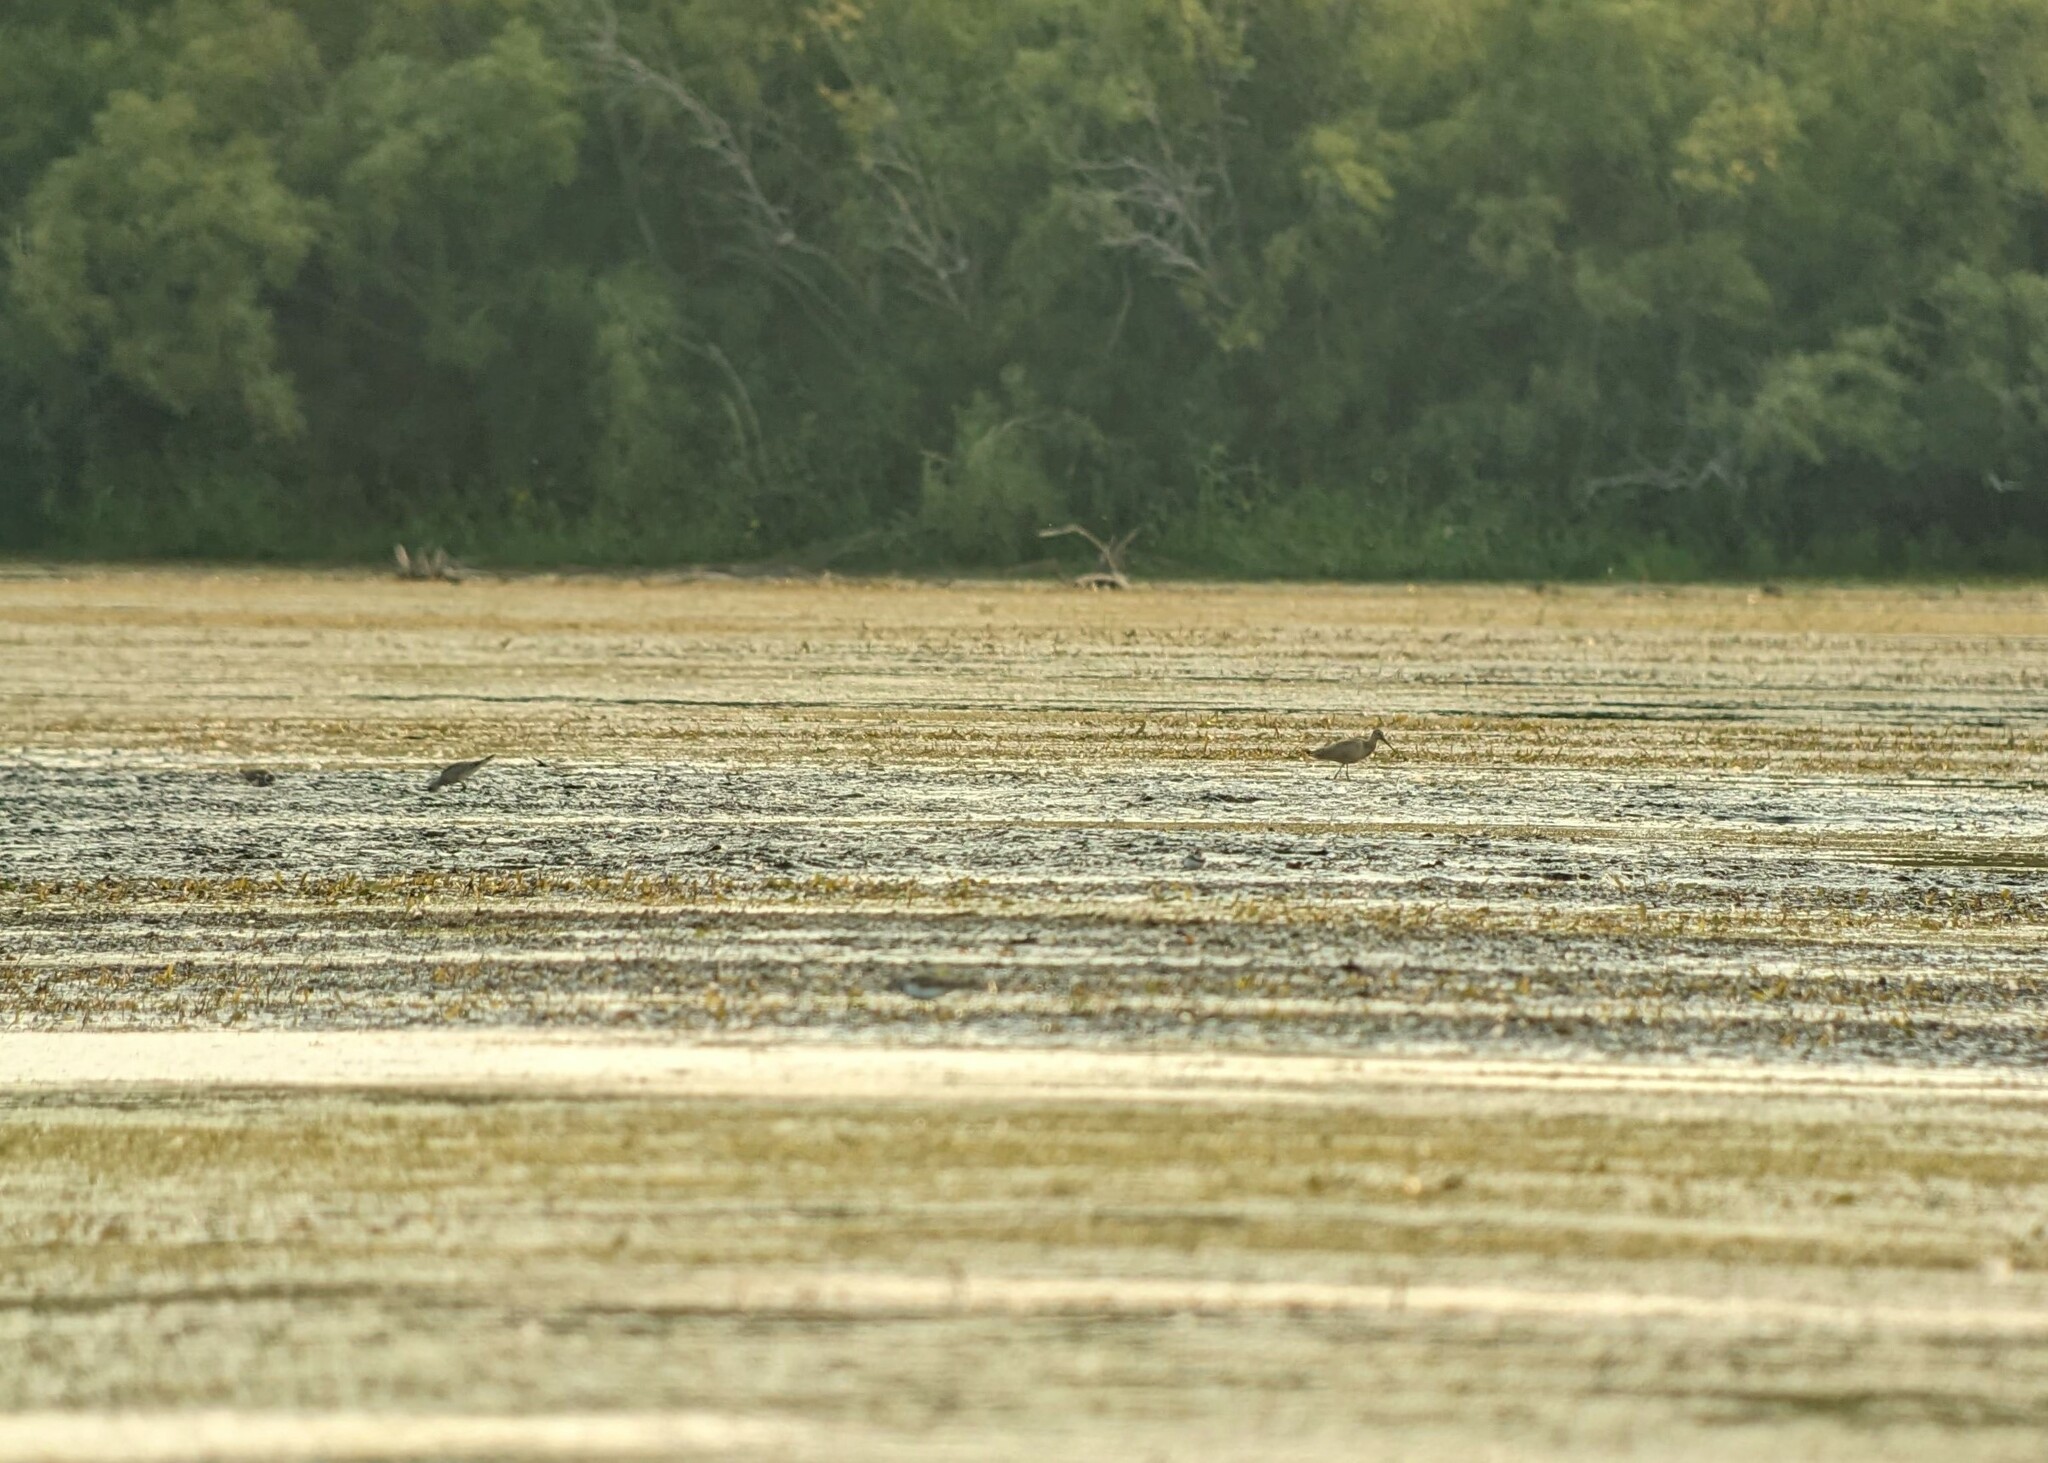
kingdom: Animalia
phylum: Chordata
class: Aves
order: Charadriiformes
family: Scolopacidae
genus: Limosa
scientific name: Limosa fedoa
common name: Marbled godwit
